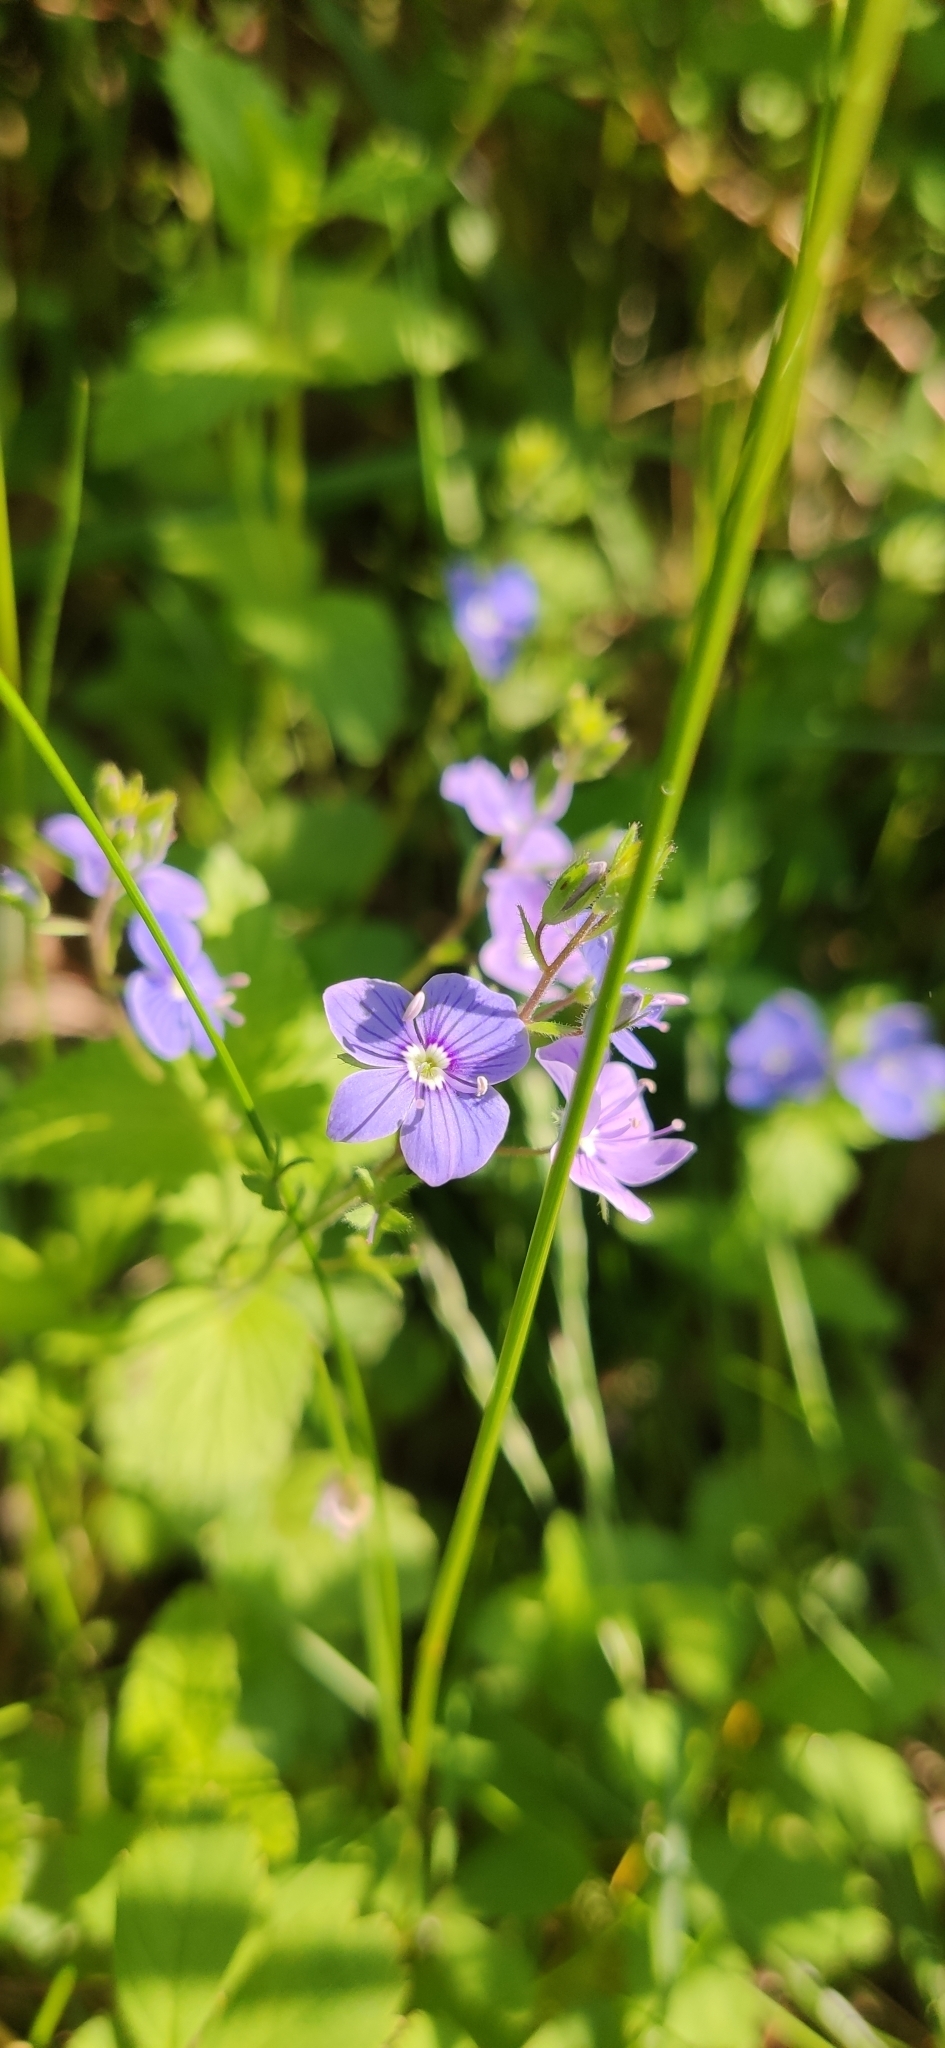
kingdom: Plantae
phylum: Tracheophyta
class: Magnoliopsida
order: Lamiales
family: Plantaginaceae
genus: Veronica
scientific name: Veronica chamaedrys
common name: Germander speedwell
